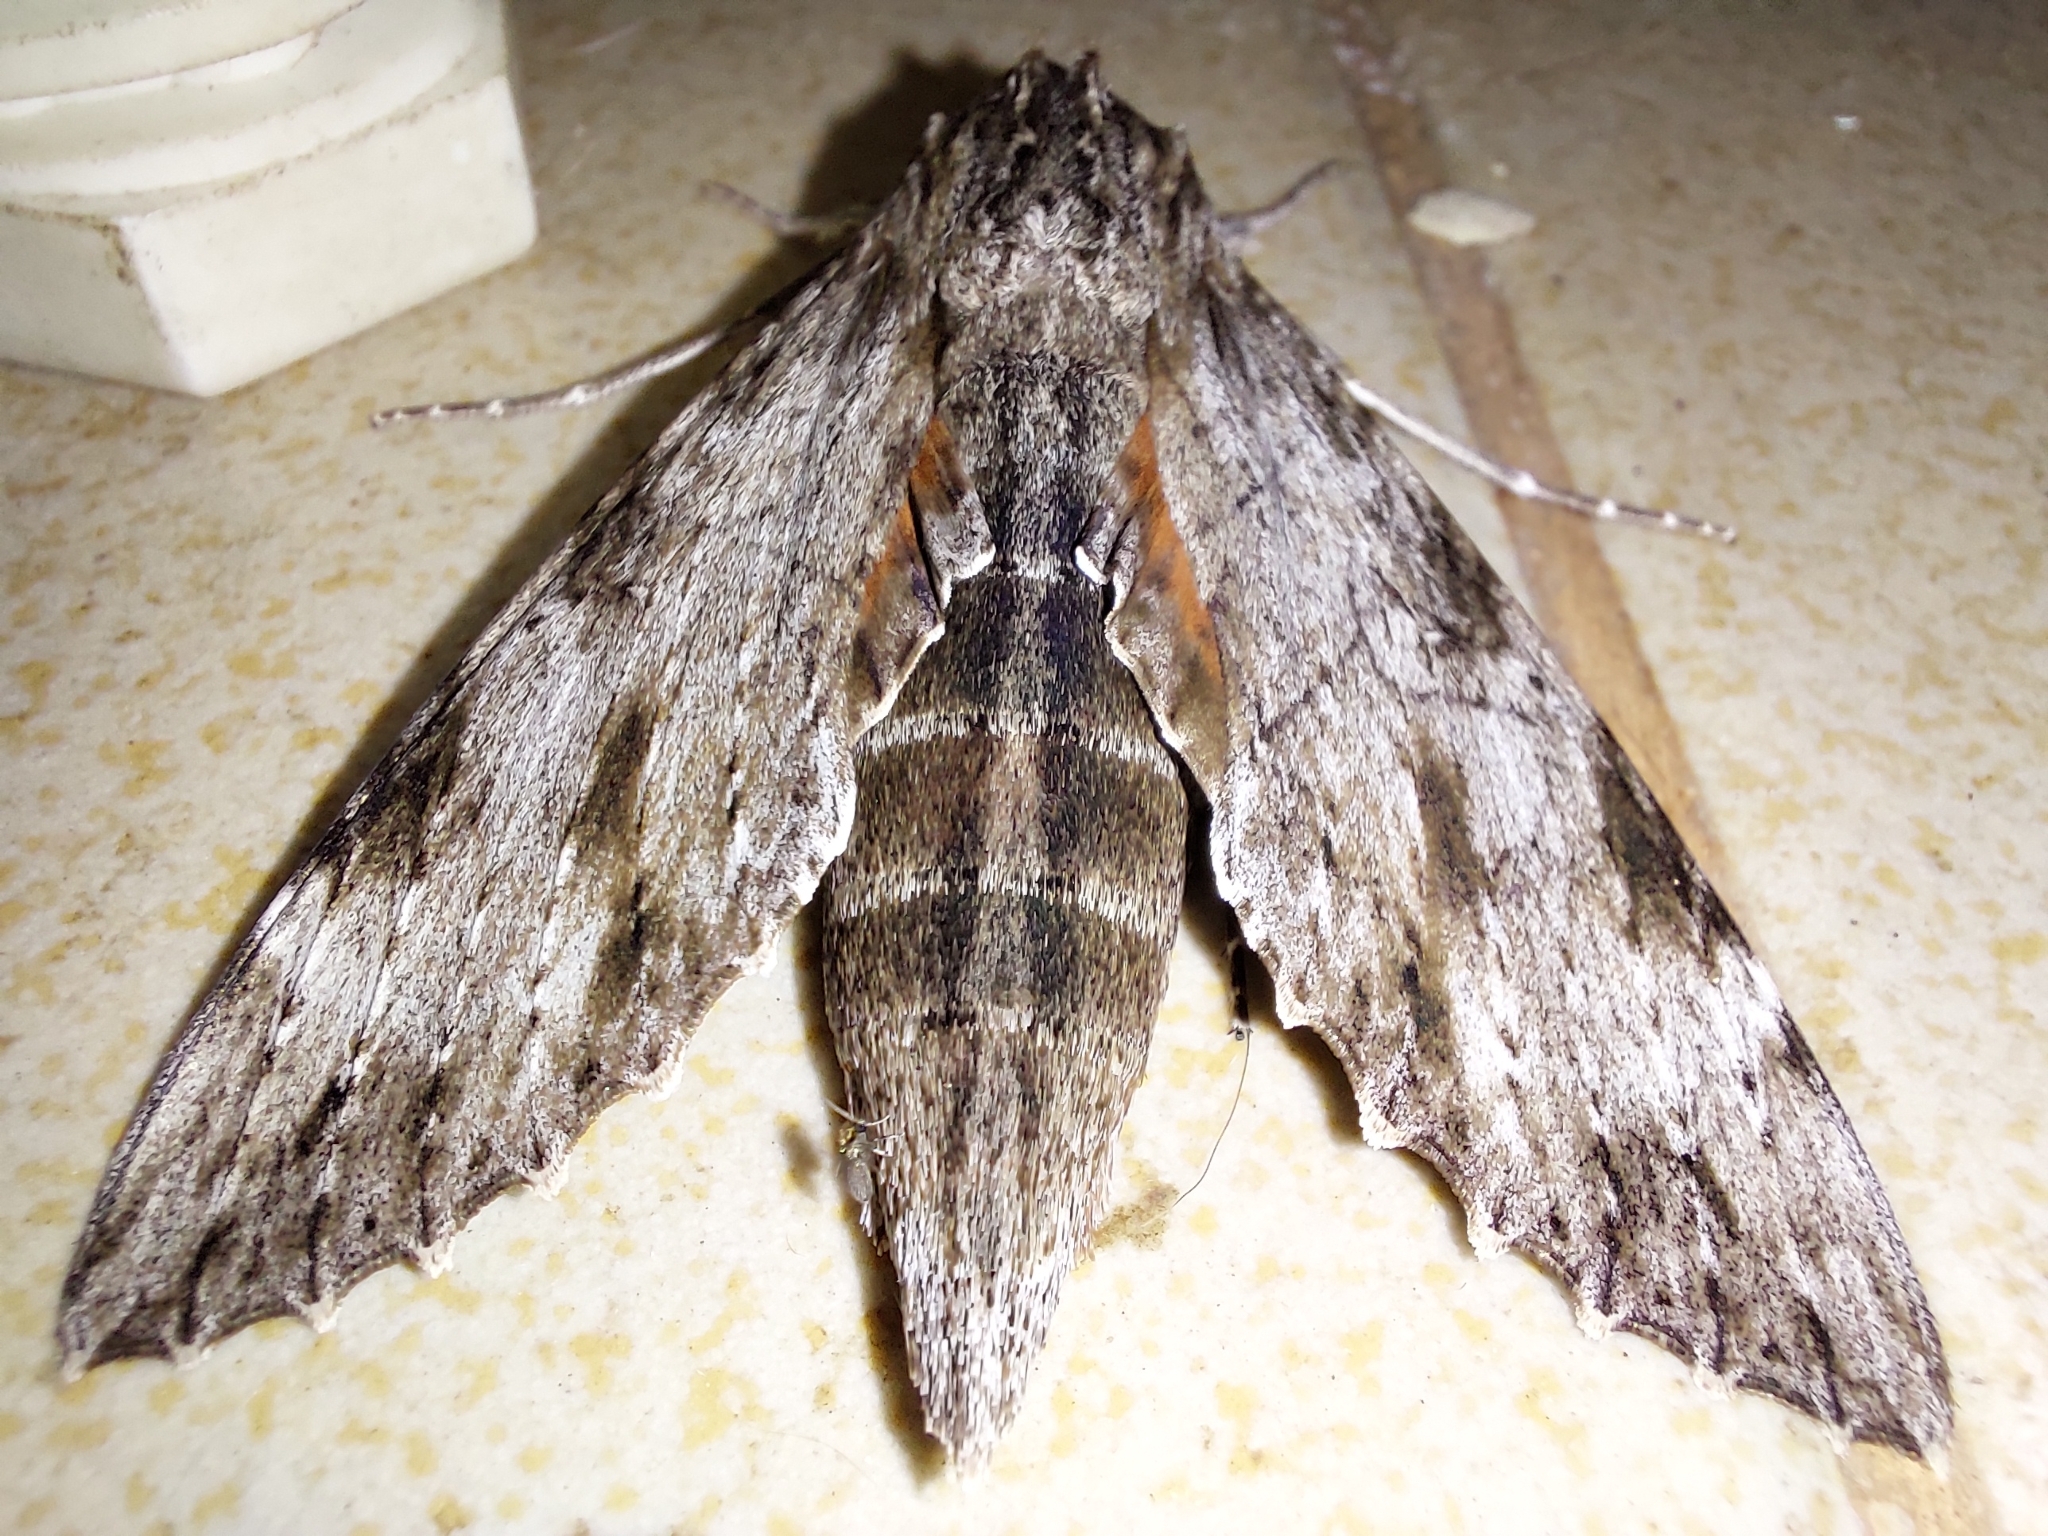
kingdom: Animalia
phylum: Arthropoda
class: Insecta
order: Lepidoptera
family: Sphingidae
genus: Erinnyis
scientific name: Erinnyis oenotrus
